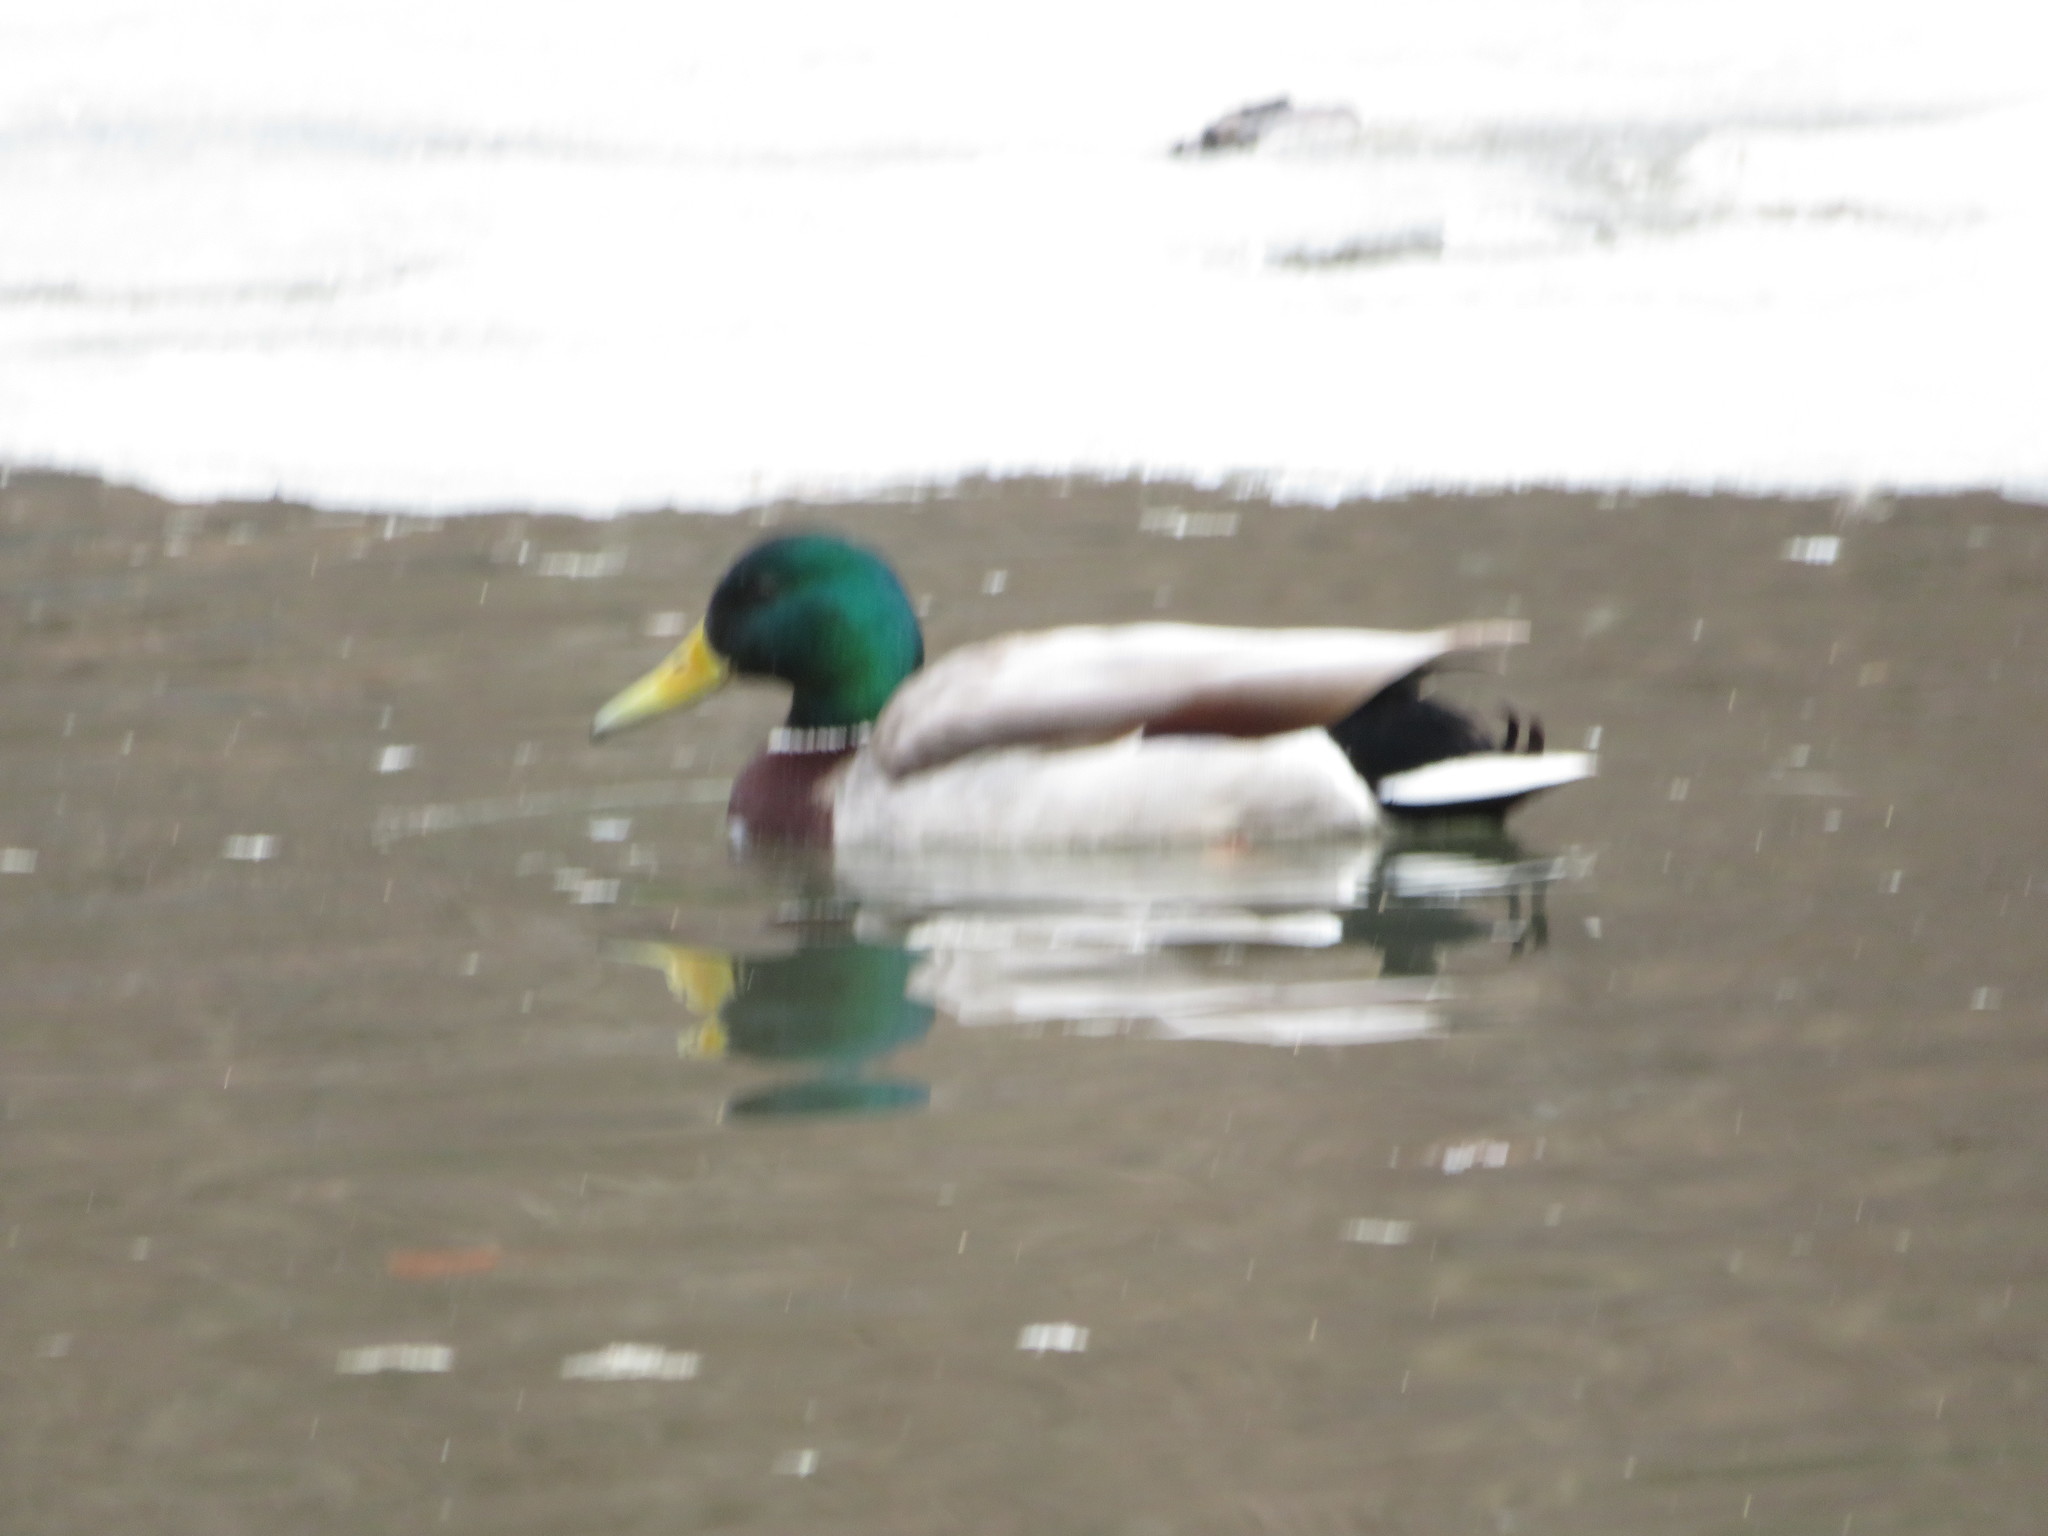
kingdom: Animalia
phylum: Chordata
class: Aves
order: Anseriformes
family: Anatidae
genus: Anas
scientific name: Anas platyrhynchos
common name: Mallard
